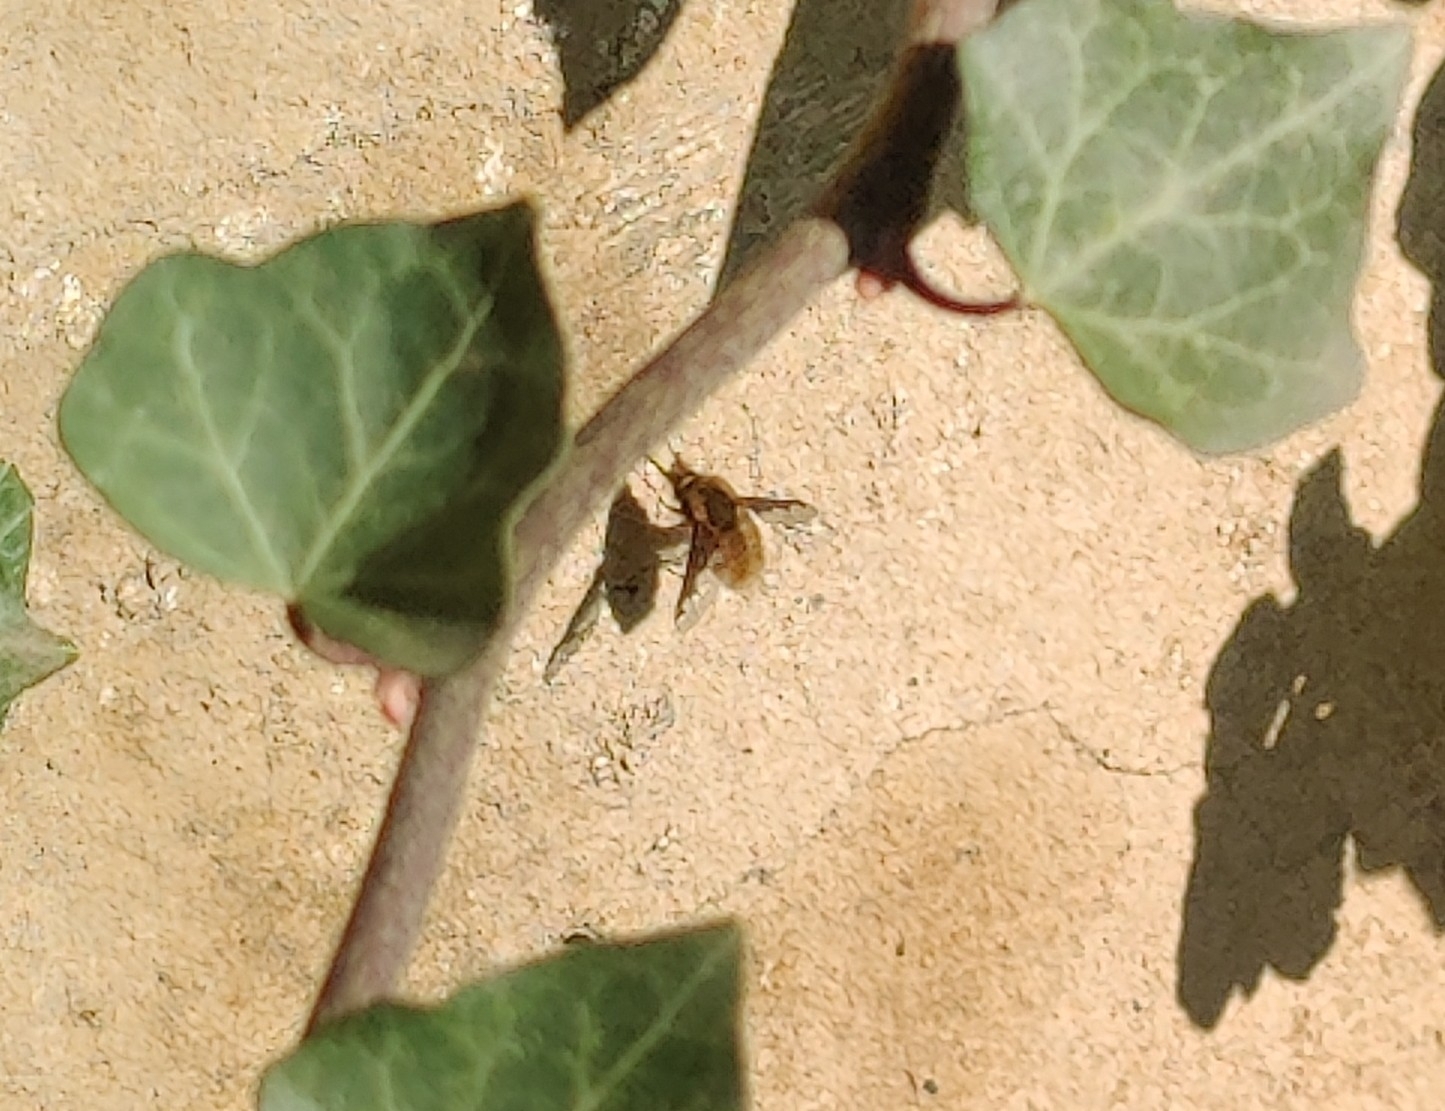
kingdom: Animalia
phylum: Arthropoda
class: Insecta
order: Diptera
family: Bombyliidae
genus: Bombylius
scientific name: Bombylius major
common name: Bee fly
